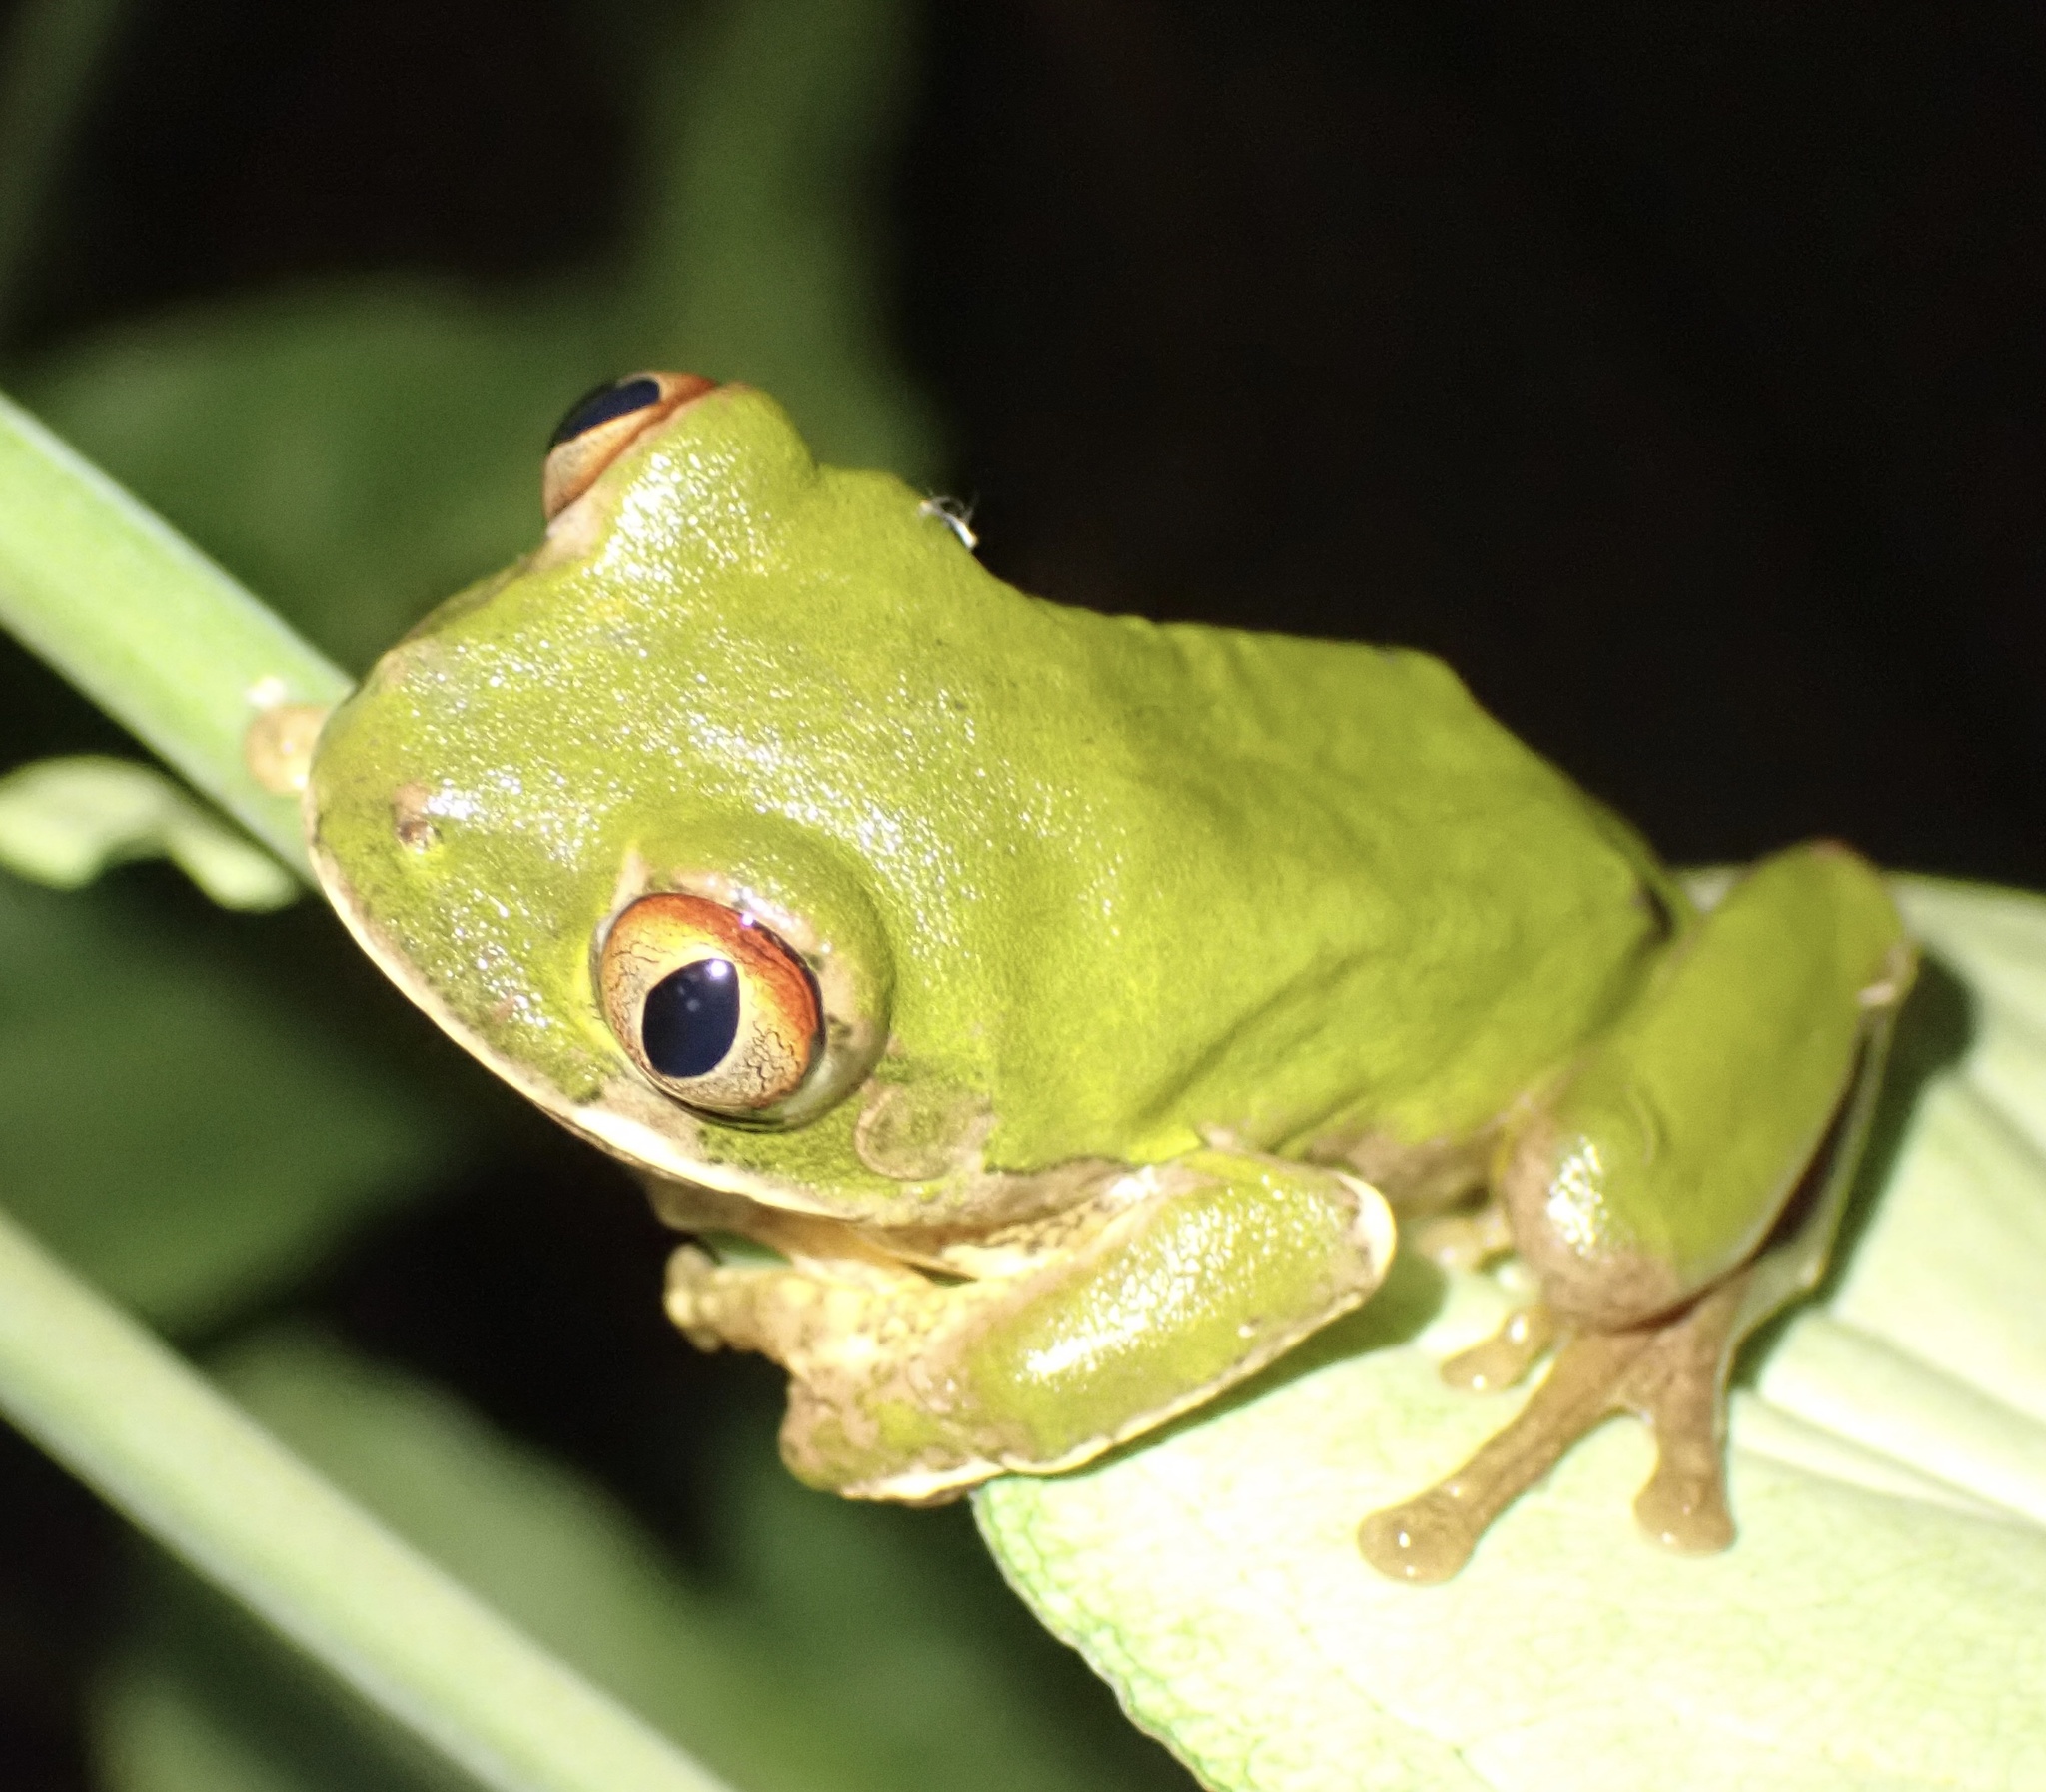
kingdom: Animalia
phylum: Chordata
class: Amphibia
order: Anura
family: Arthroleptidae
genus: Leptopelis
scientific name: Leptopelis natalensis
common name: Natal tree frog
